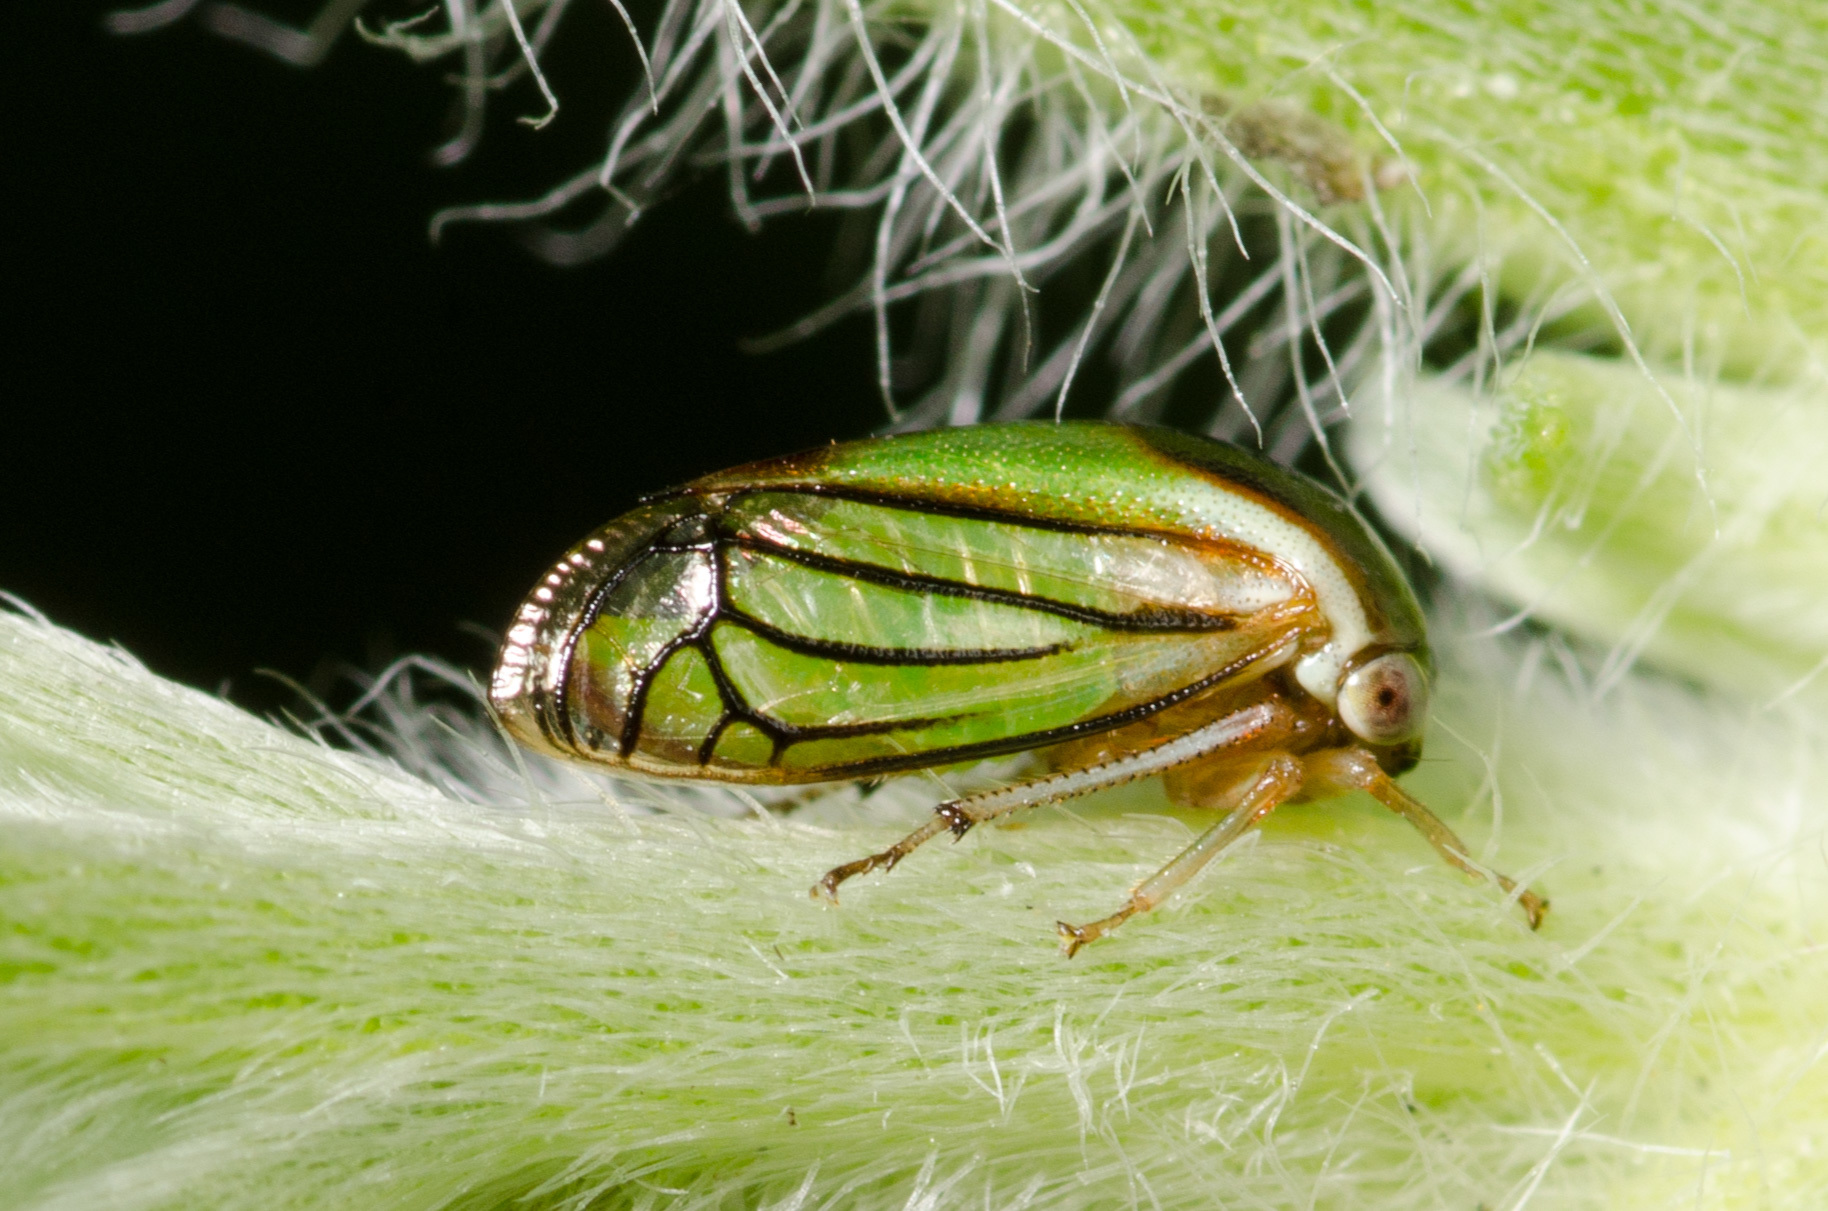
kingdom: Animalia
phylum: Arthropoda
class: Insecta
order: Hemiptera
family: Membracidae
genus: Acutalis
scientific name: Acutalis tartarea
